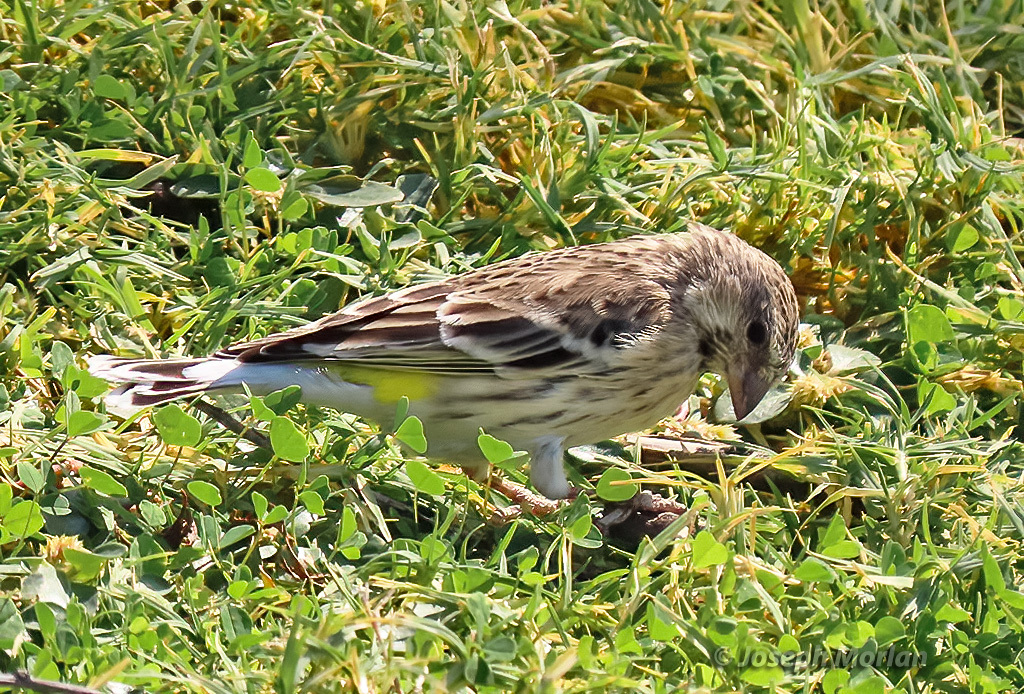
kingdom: Animalia
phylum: Chordata
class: Aves
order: Passeriformes
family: Fringillidae
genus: Crithagra
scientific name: Crithagra atrogularis
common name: Black-throated canary
